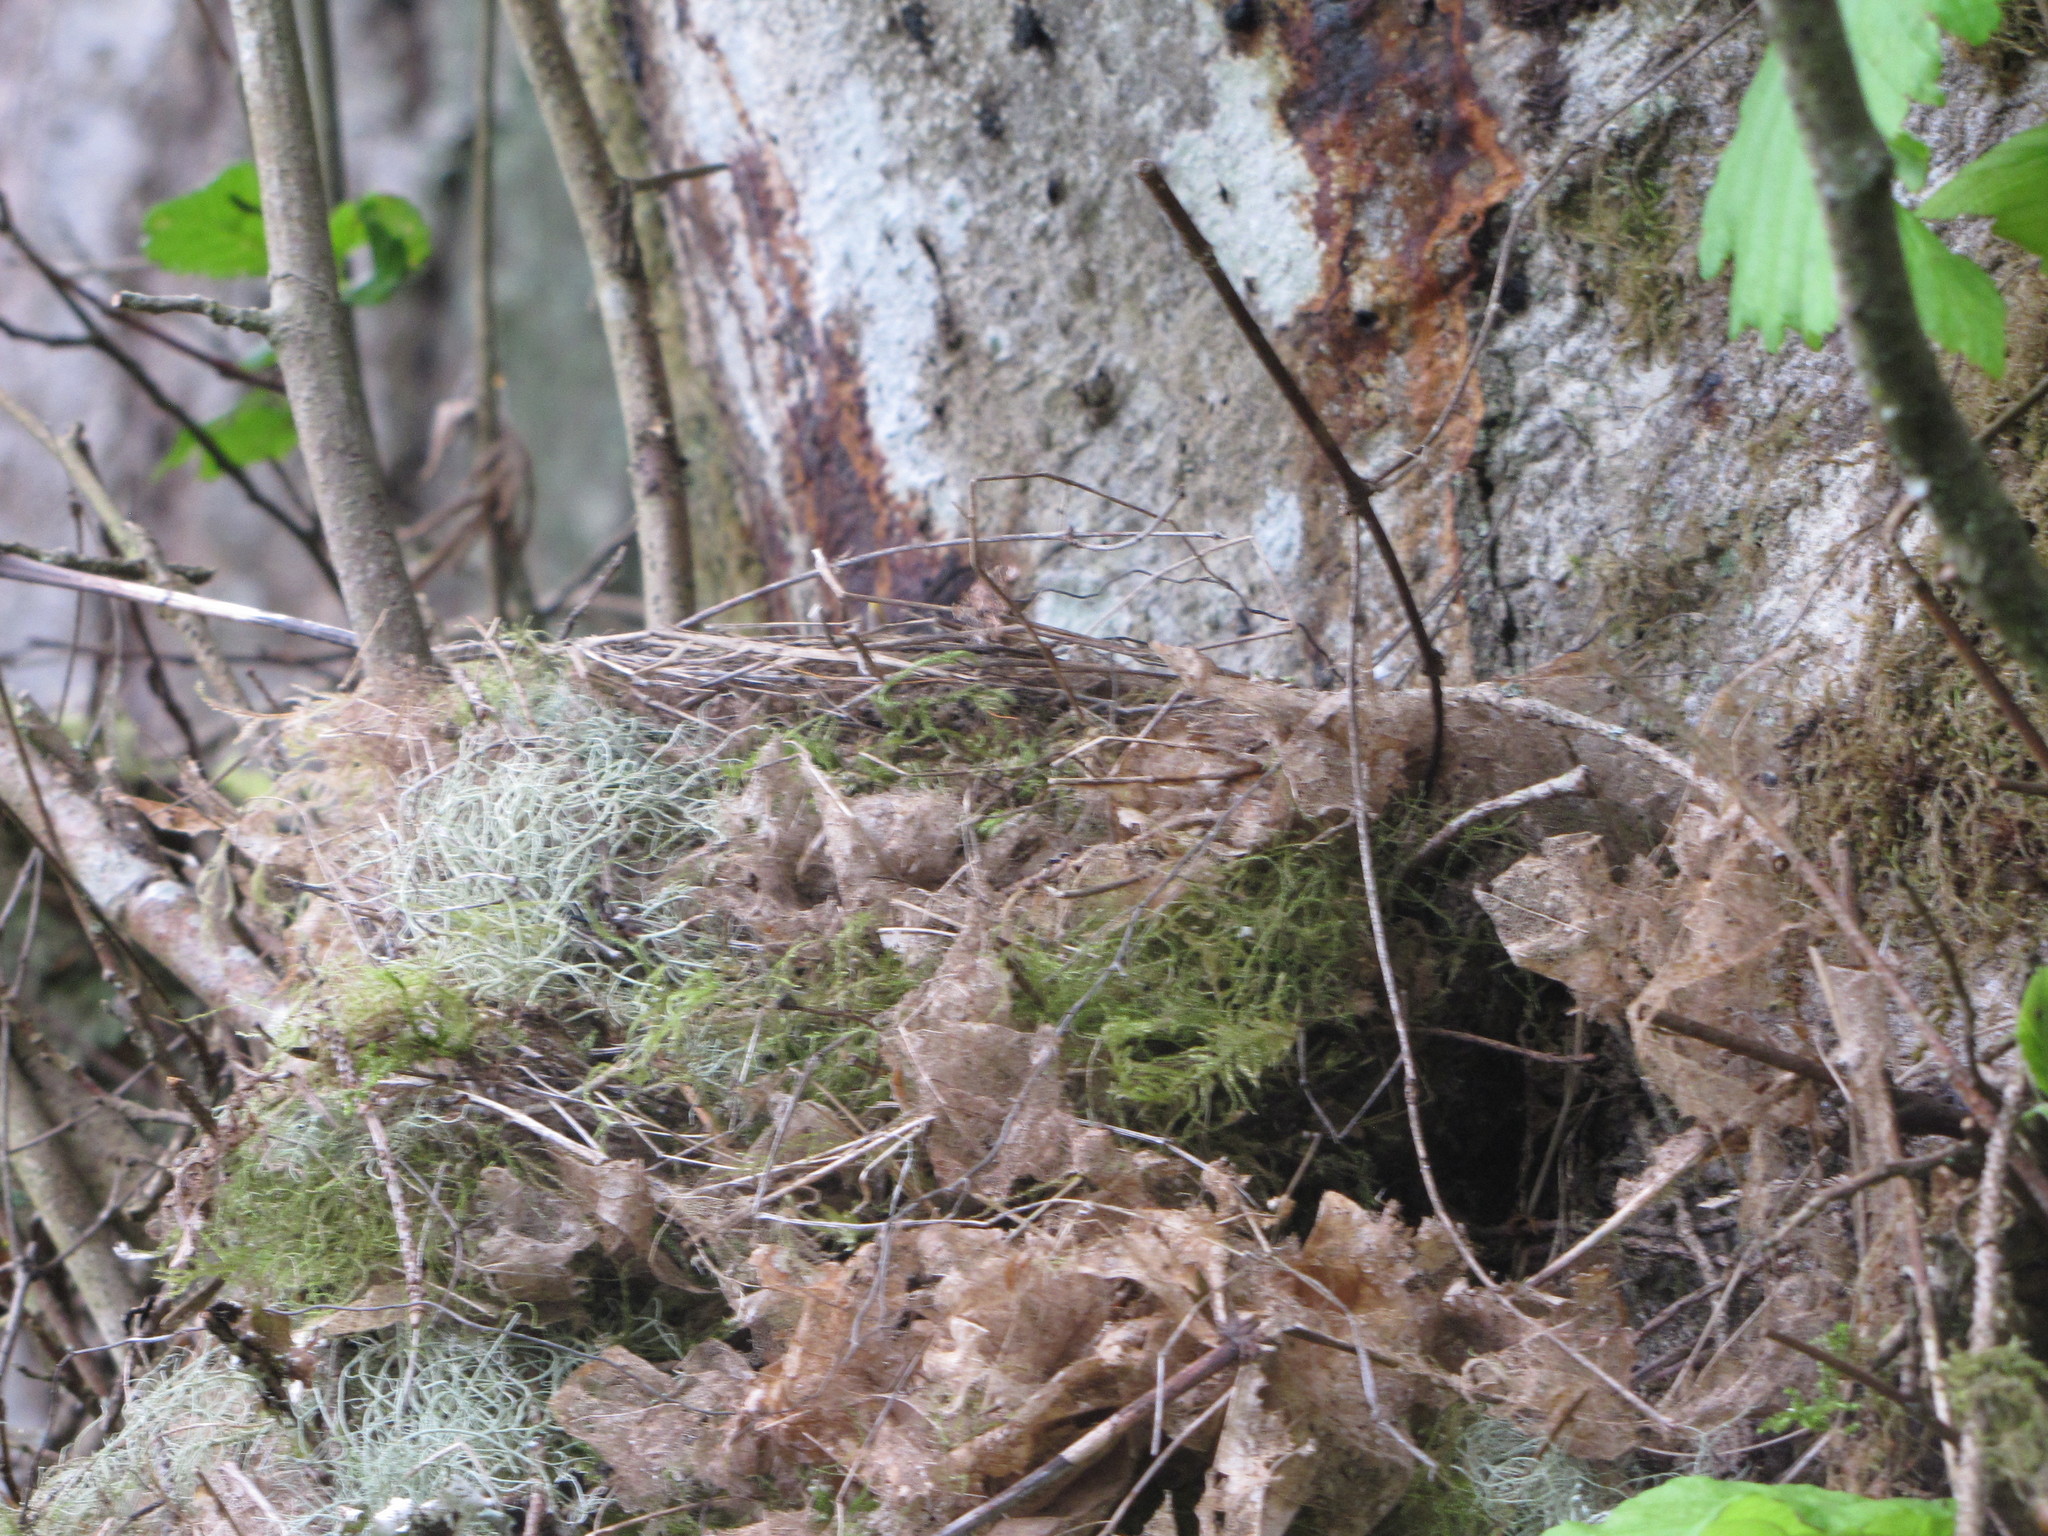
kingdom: Animalia
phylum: Chordata
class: Aves
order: Passeriformes
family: Turdidae
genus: Turdus
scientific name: Turdus migratorius
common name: American robin
